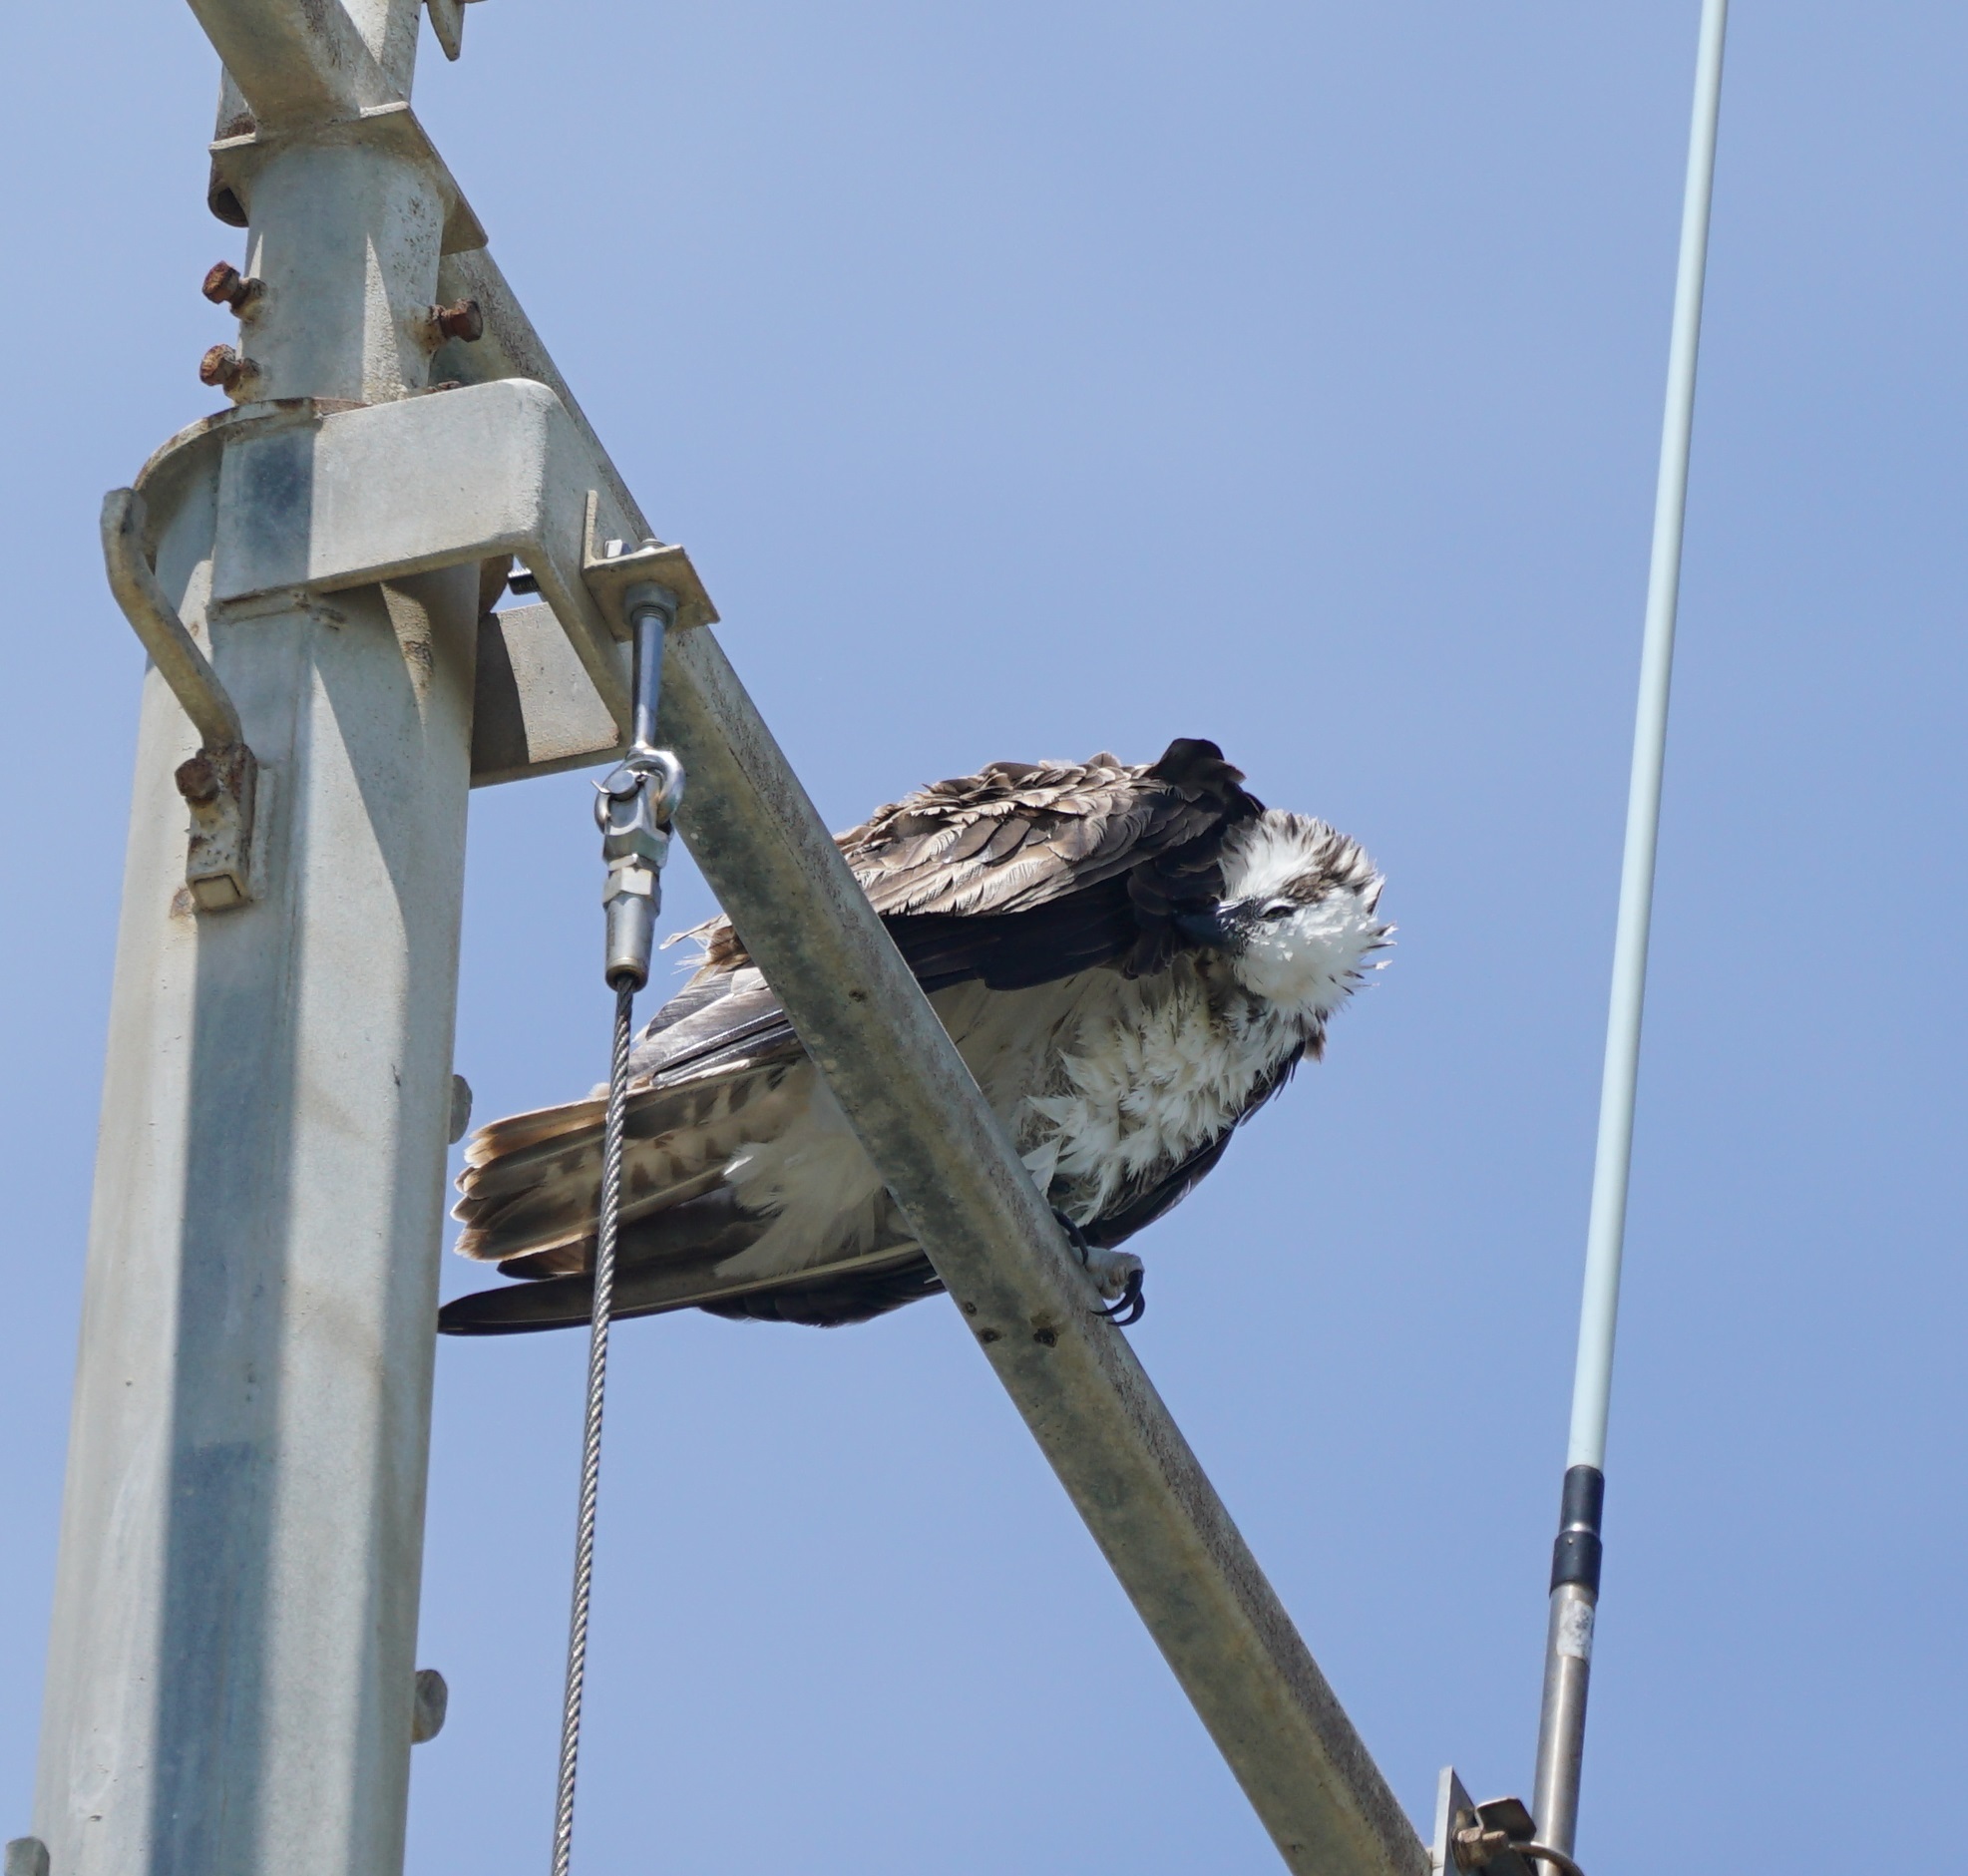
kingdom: Animalia
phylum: Chordata
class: Aves
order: Accipitriformes
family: Pandionidae
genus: Pandion
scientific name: Pandion haliaetus
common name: Osprey
